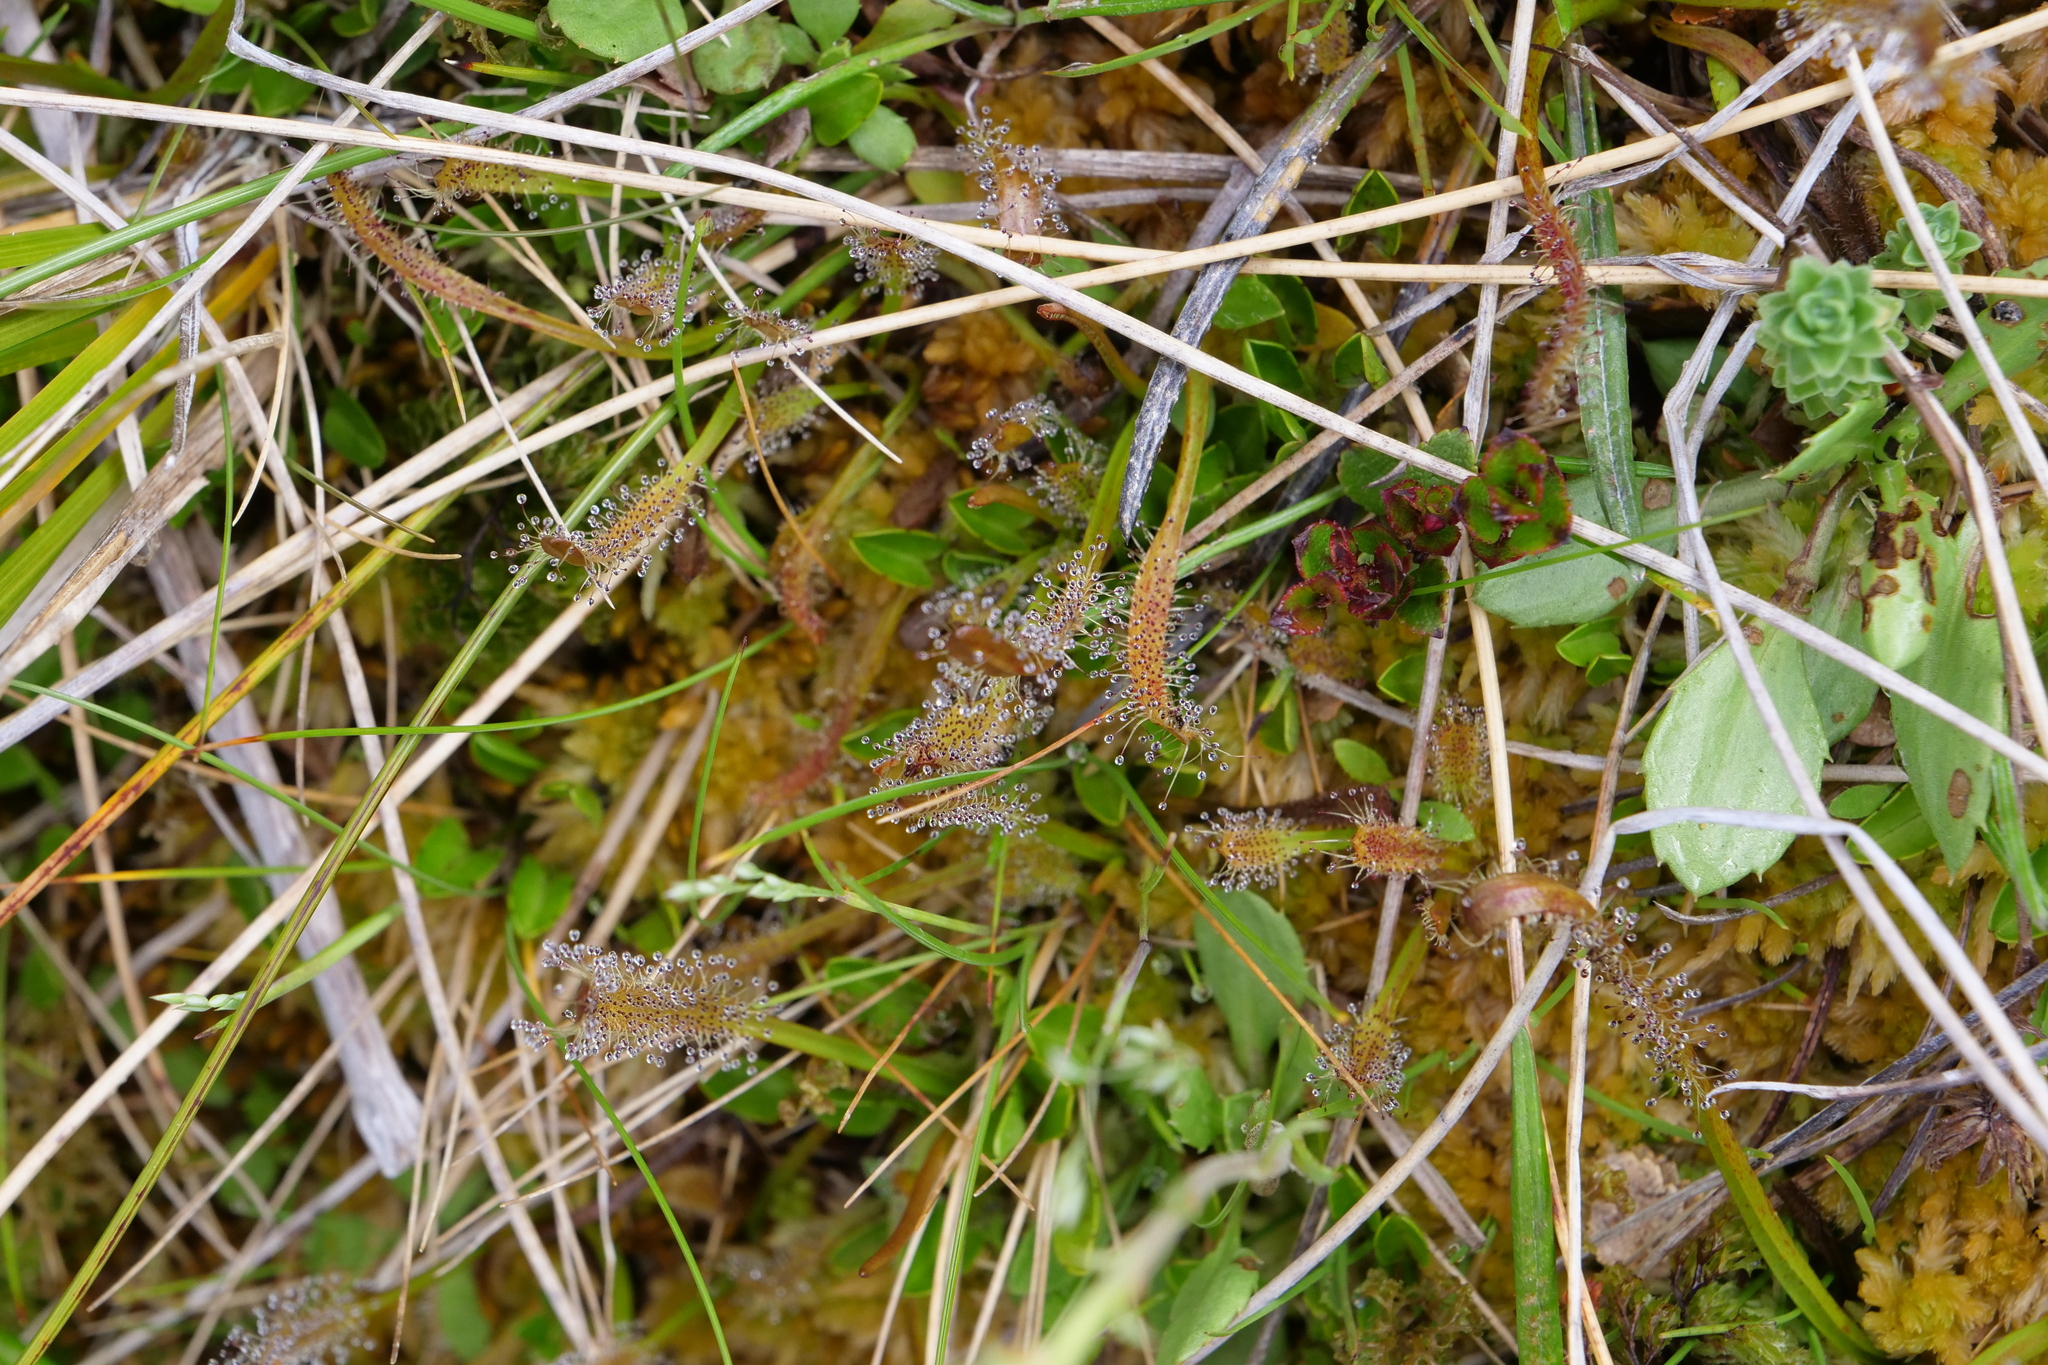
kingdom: Plantae
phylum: Tracheophyta
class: Magnoliopsida
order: Caryophyllales
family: Droseraceae
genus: Drosera
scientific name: Drosera arcturi
